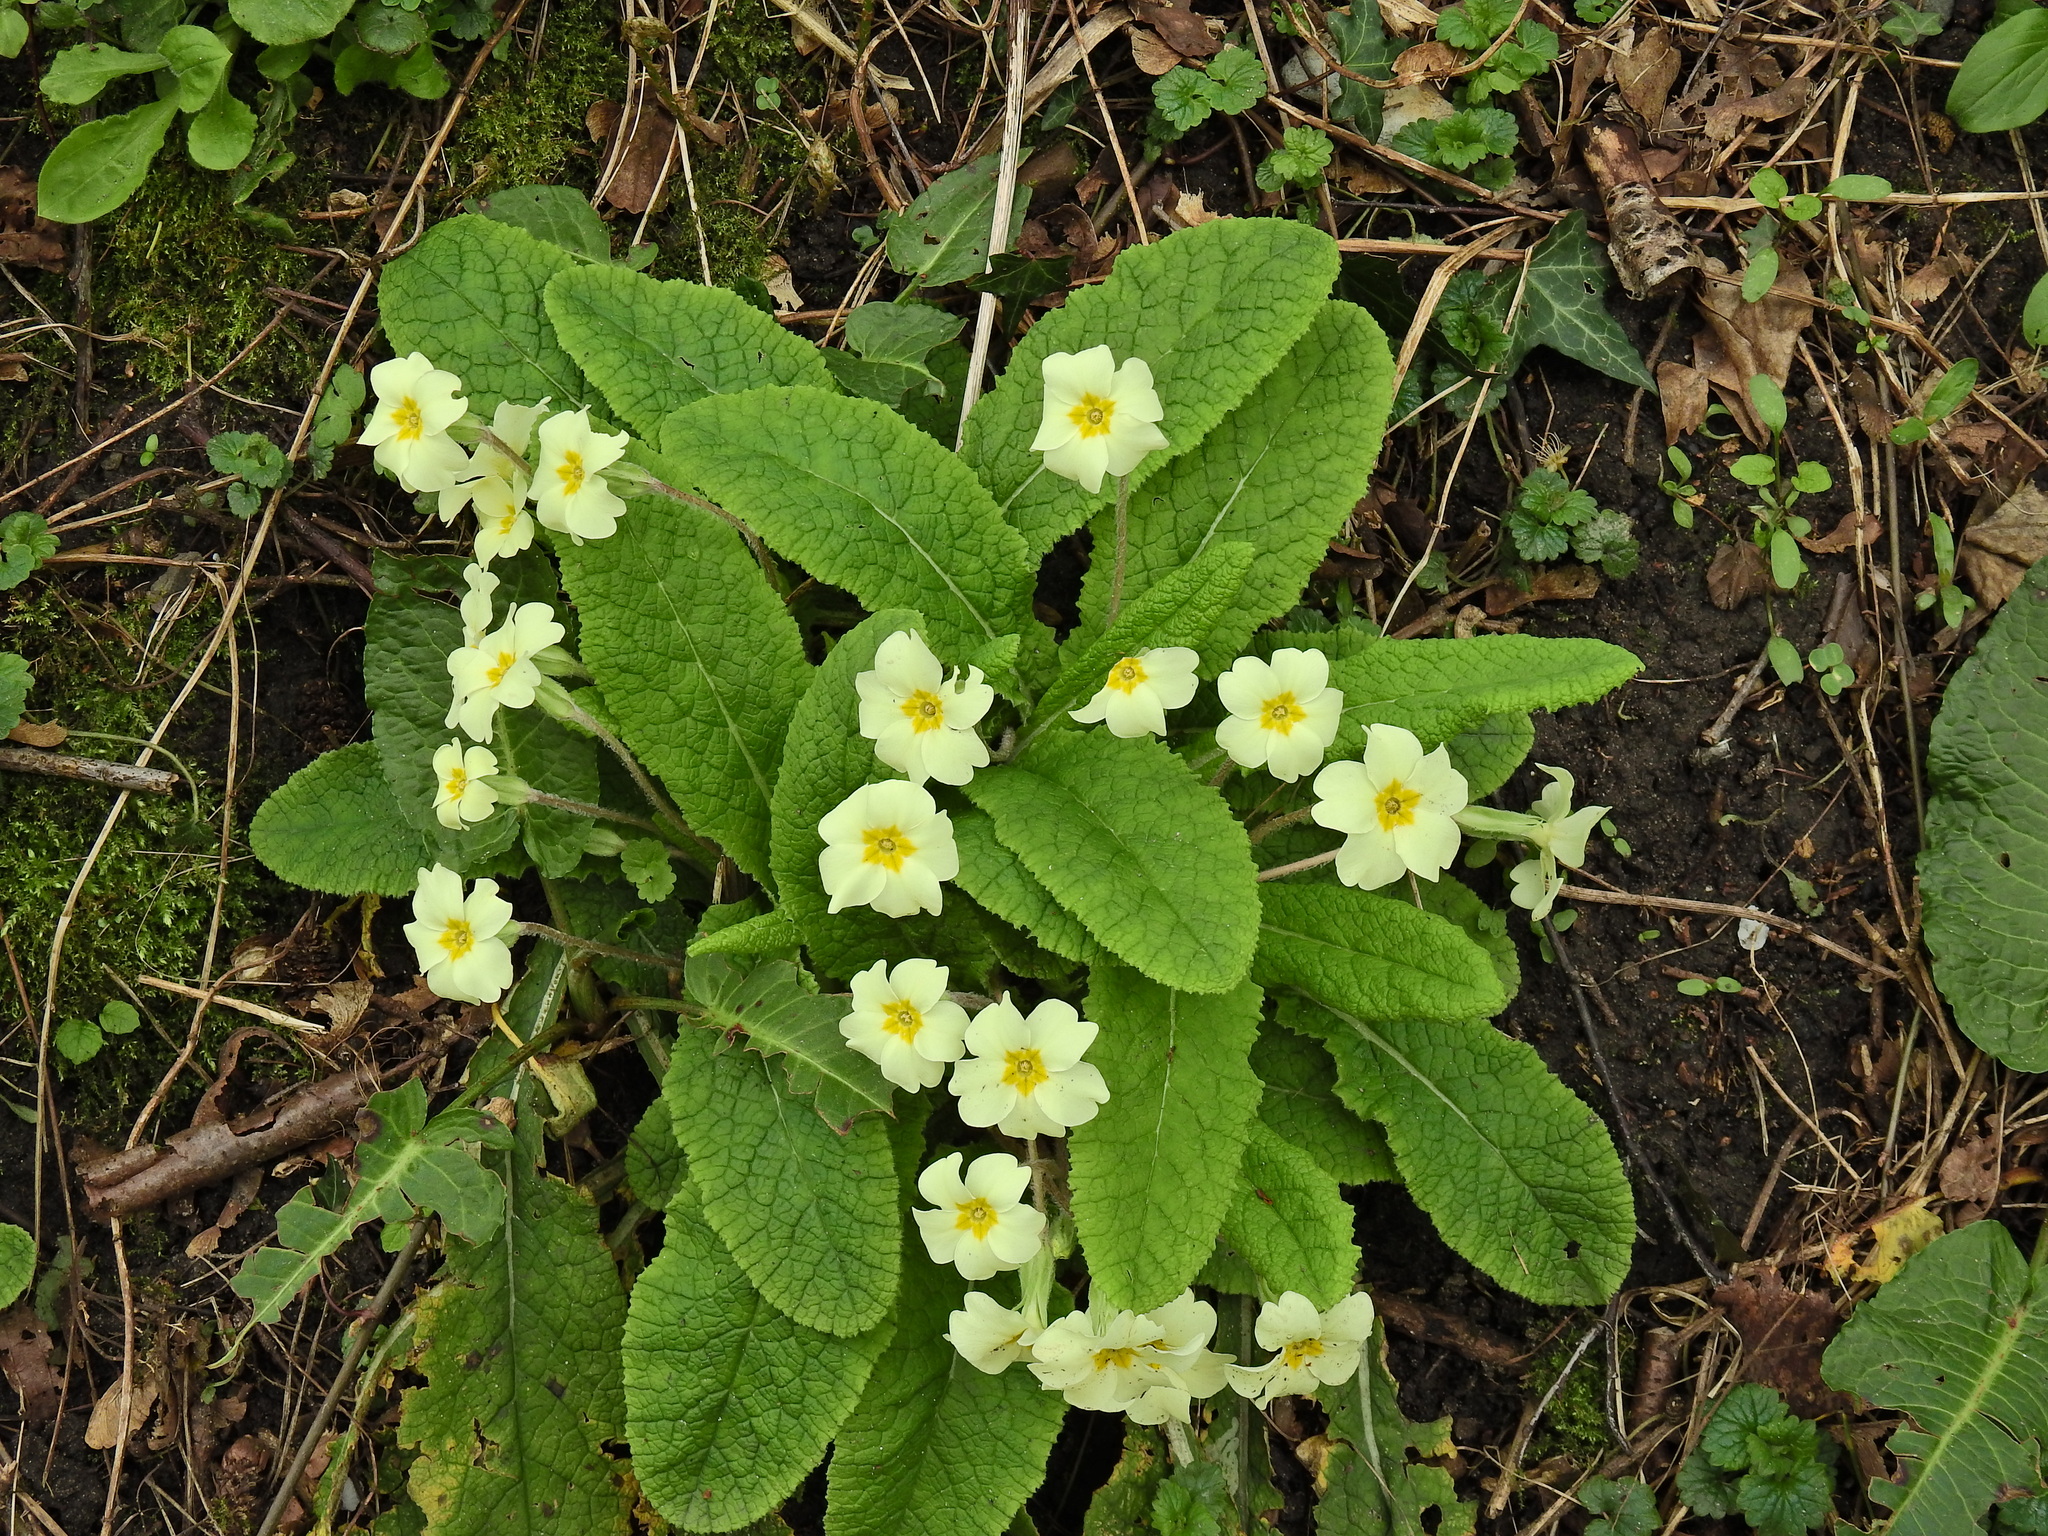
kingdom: Plantae
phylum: Tracheophyta
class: Magnoliopsida
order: Ericales
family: Primulaceae
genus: Primula
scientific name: Primula vulgaris
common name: Primrose
